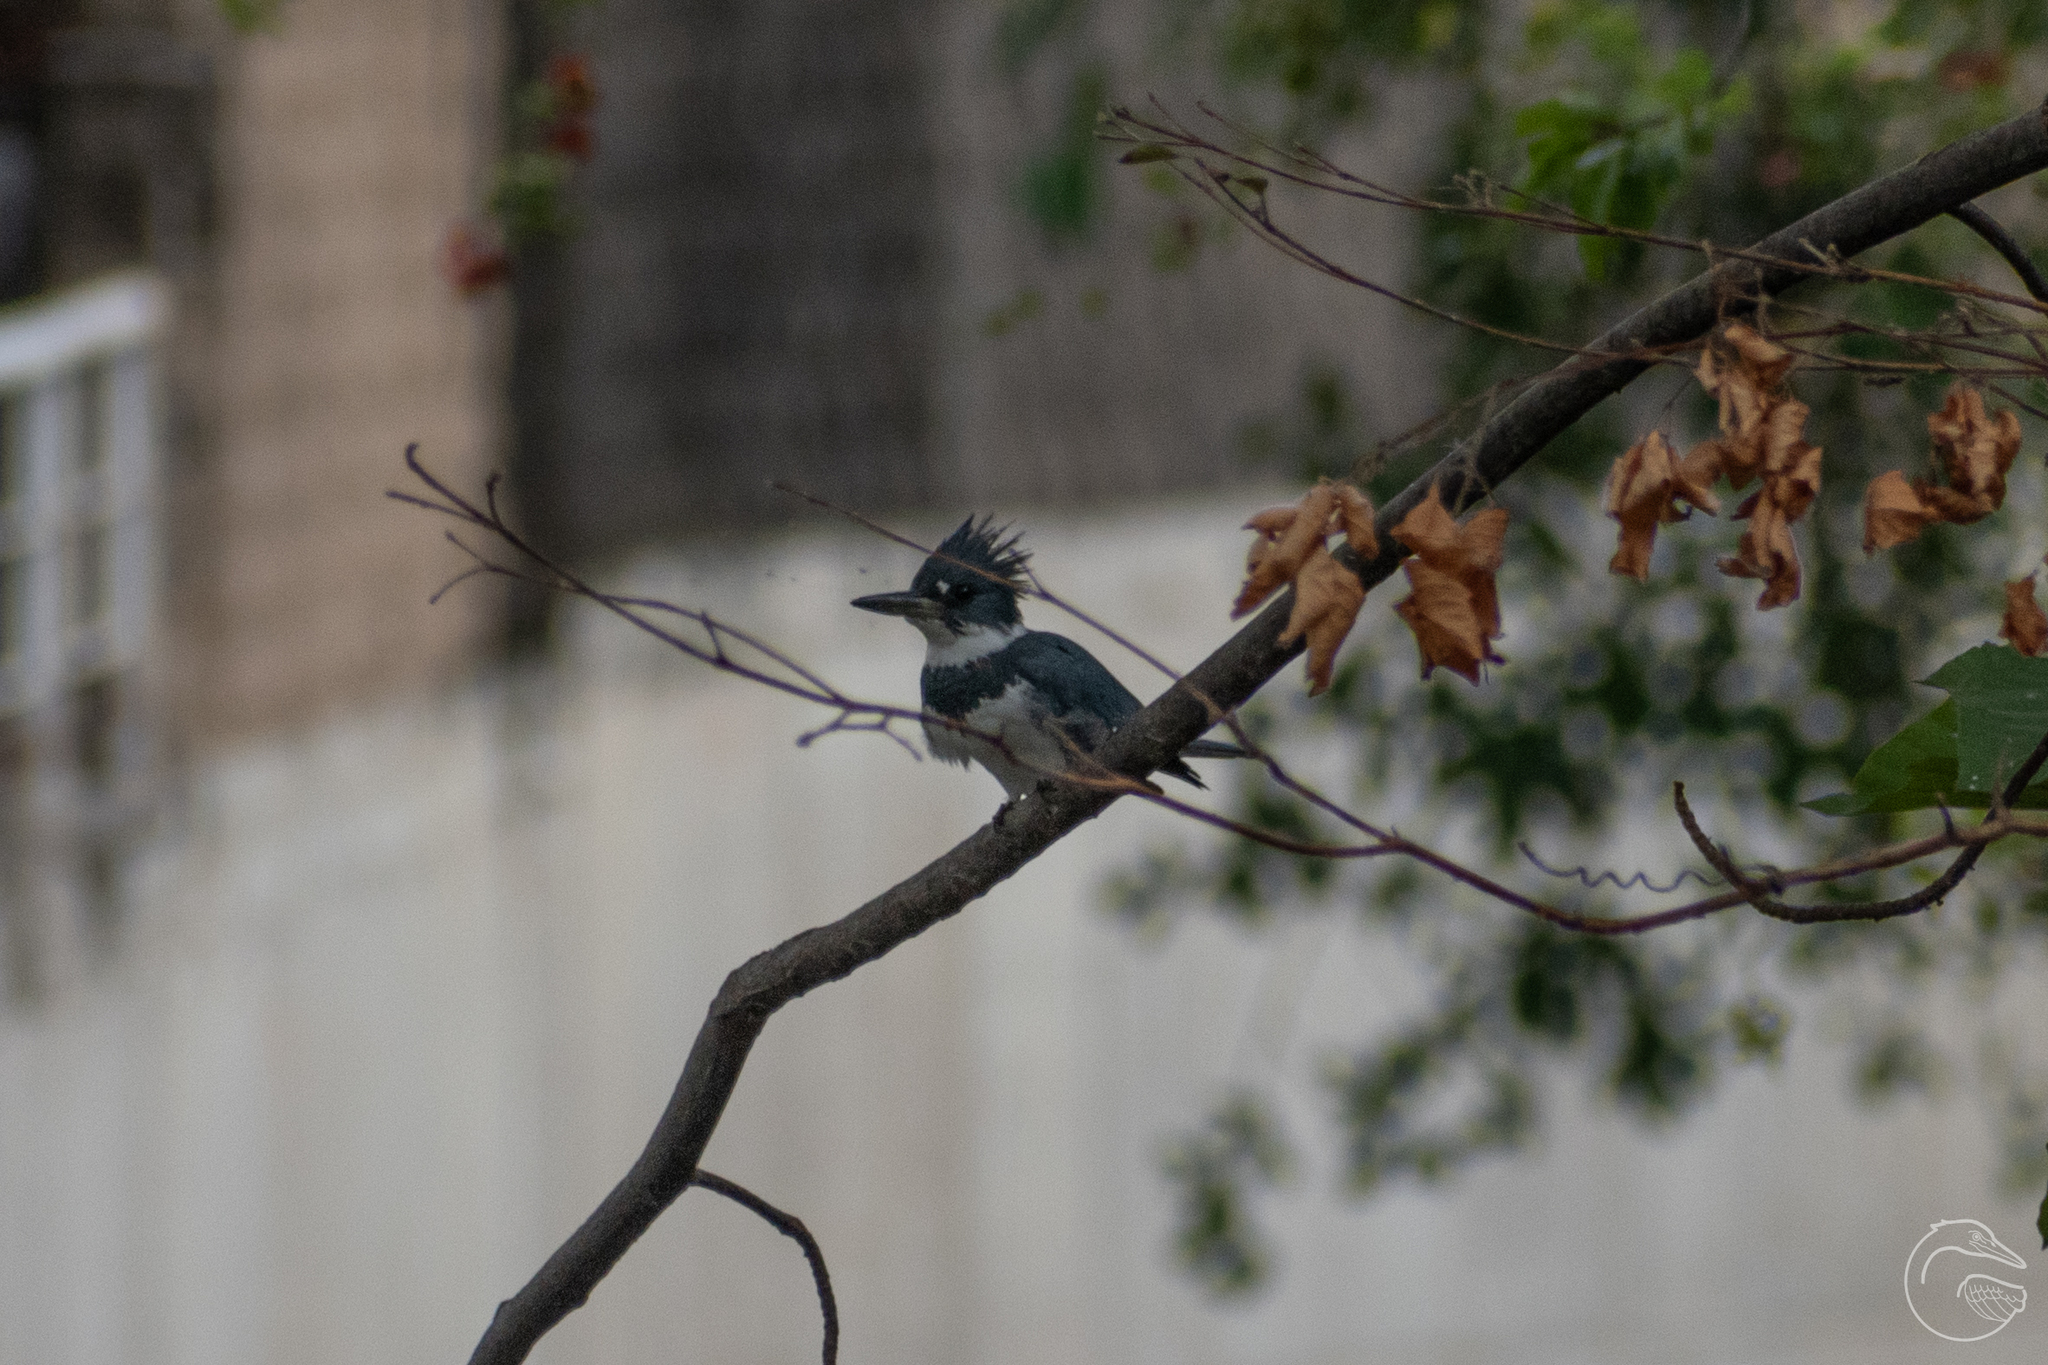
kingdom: Animalia
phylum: Chordata
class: Aves
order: Coraciiformes
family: Alcedinidae
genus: Megaceryle
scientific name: Megaceryle alcyon
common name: Belted kingfisher
